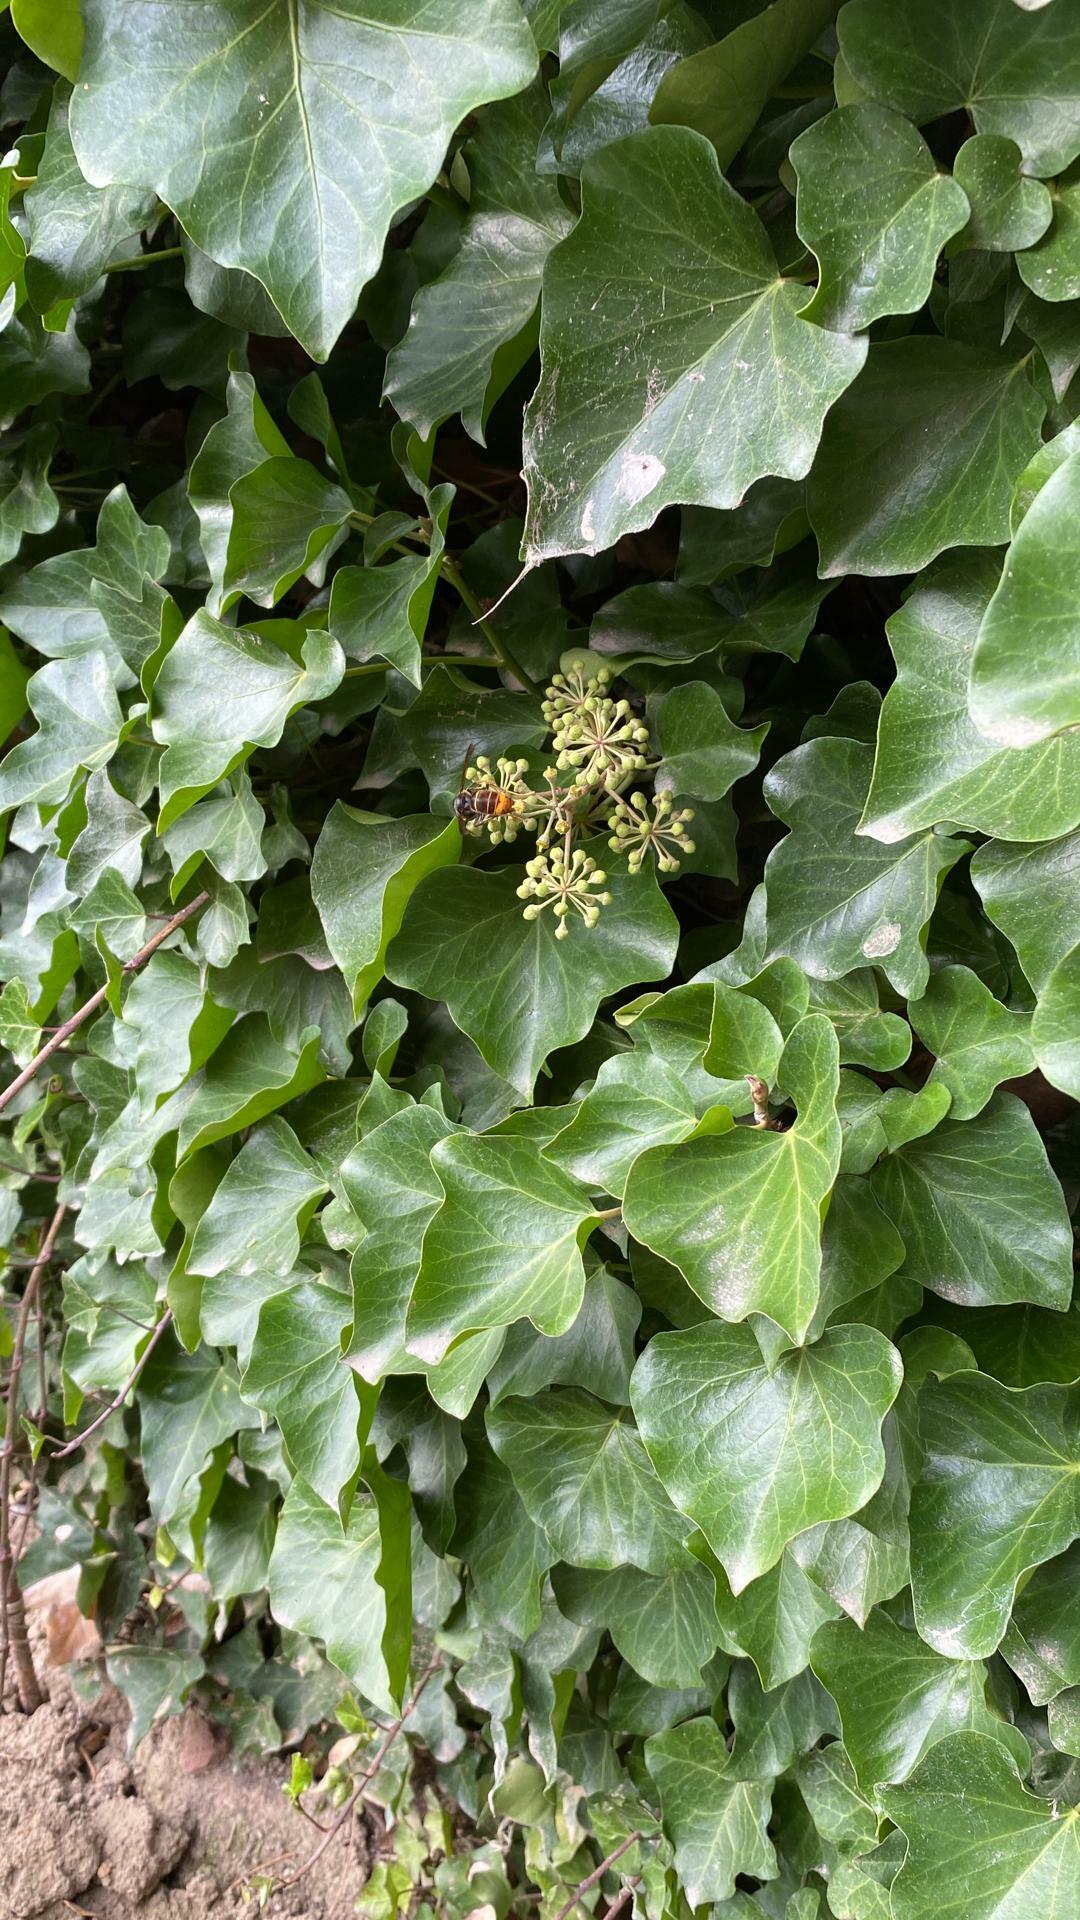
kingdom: Animalia
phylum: Arthropoda
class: Insecta
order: Hymenoptera
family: Vespidae
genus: Vespa
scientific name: Vespa velutina
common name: Asian hornet
